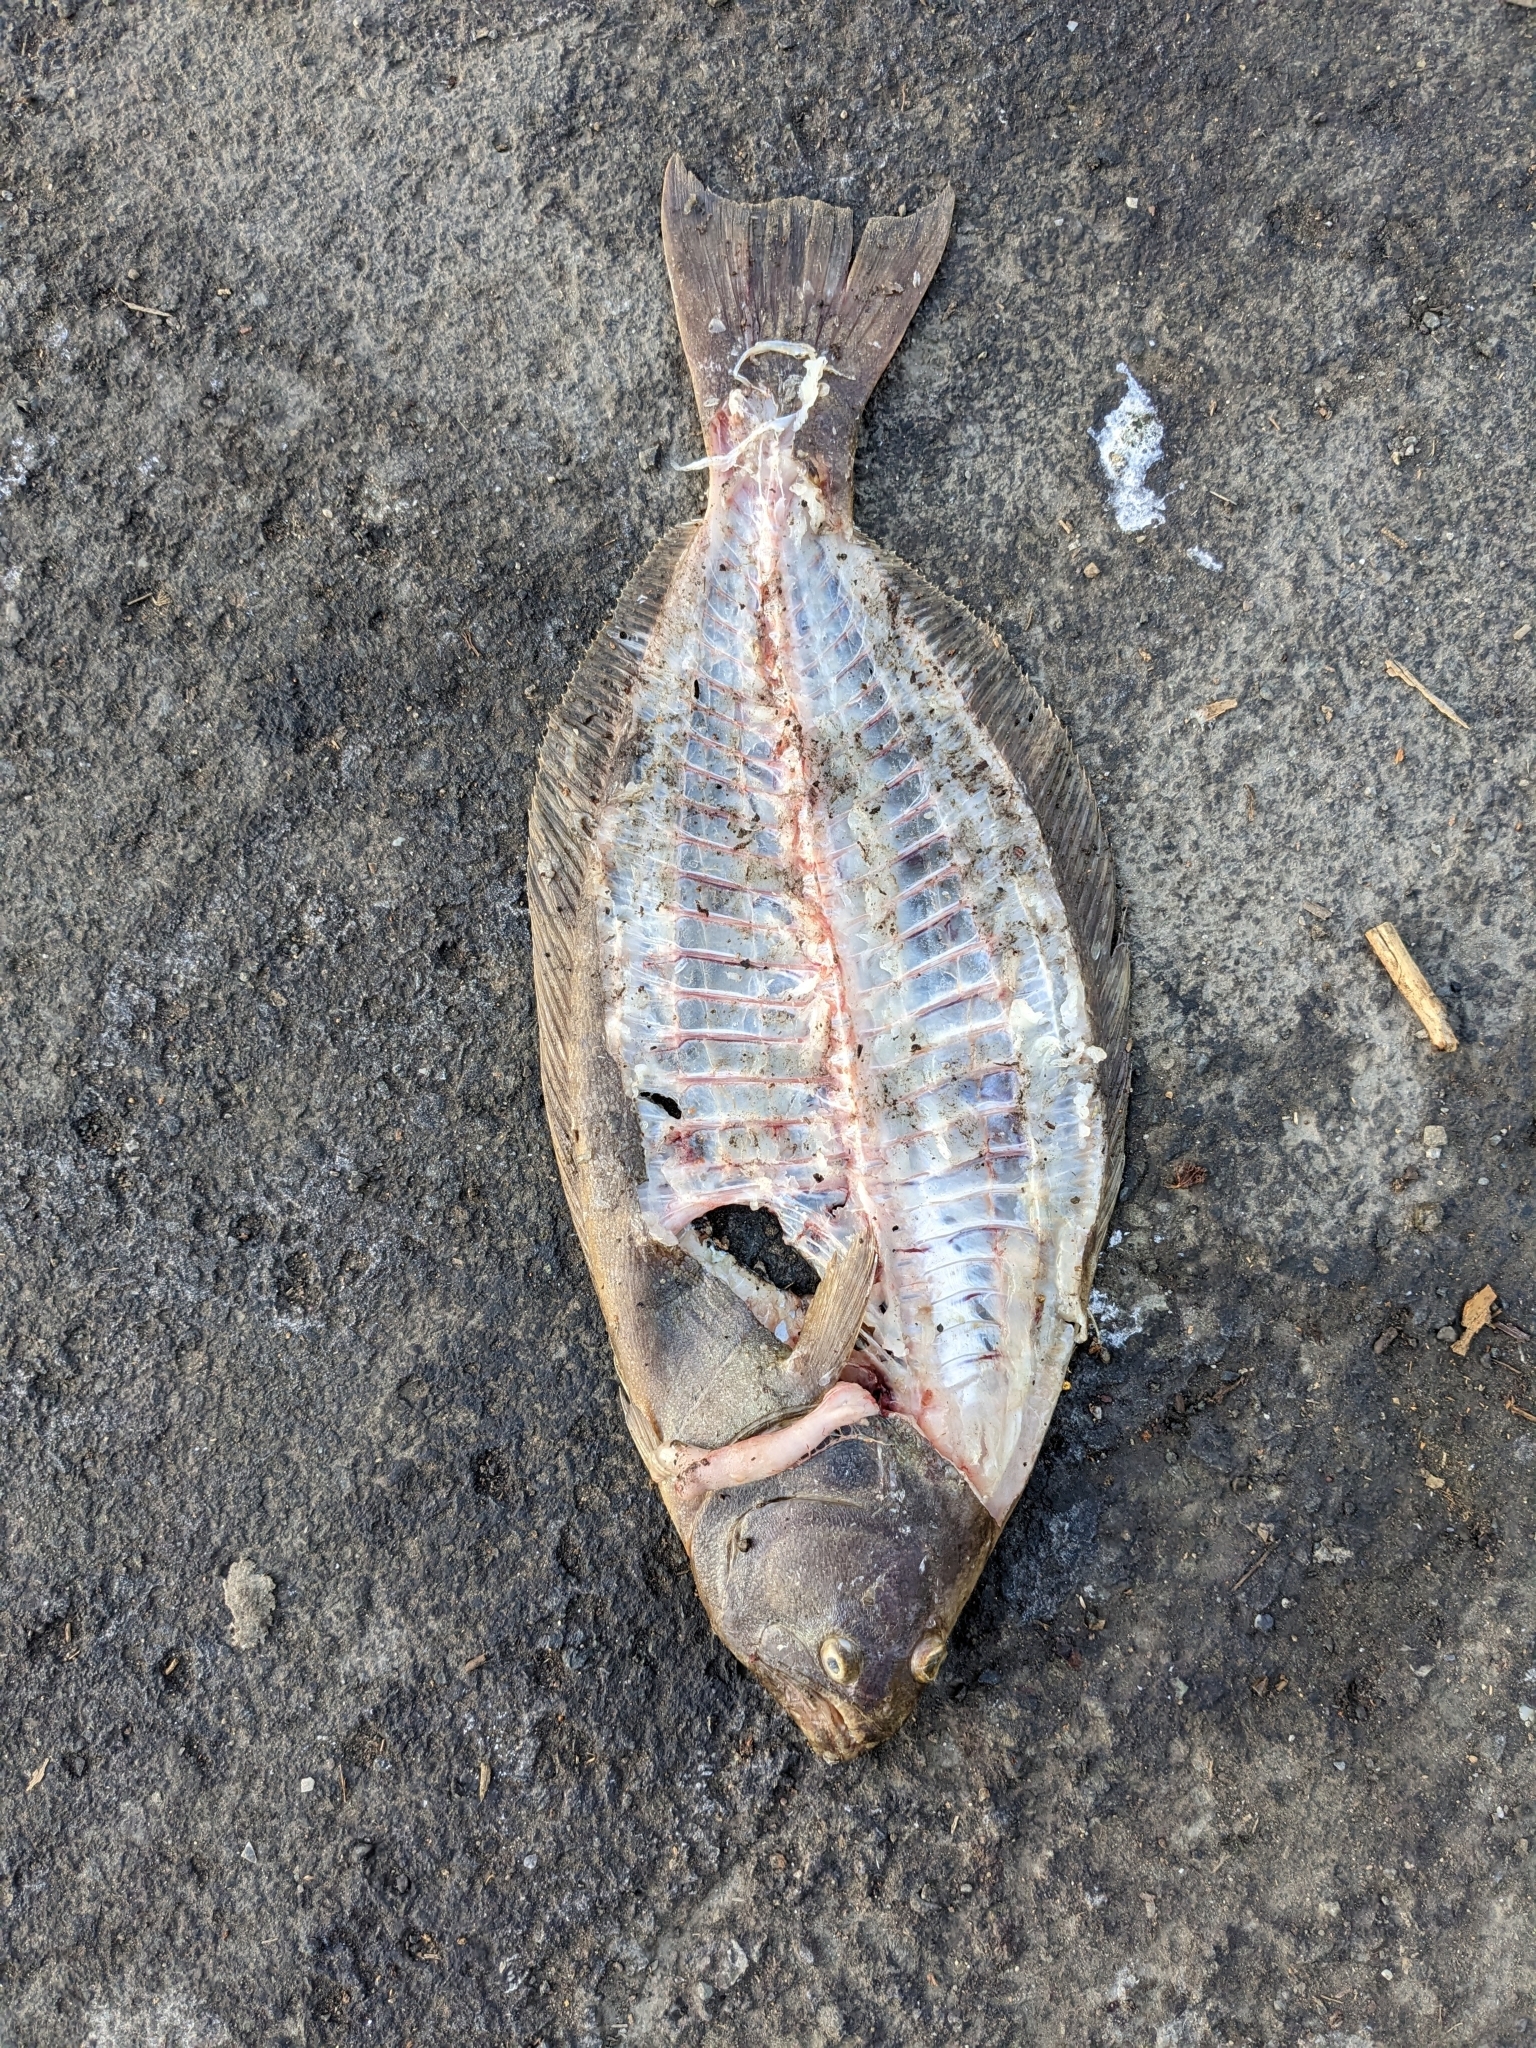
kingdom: Animalia
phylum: Chordata
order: Pleuronectiformes
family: Paralichthyidae
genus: Paralichthys
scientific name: Paralichthys californicus
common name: California halibut
